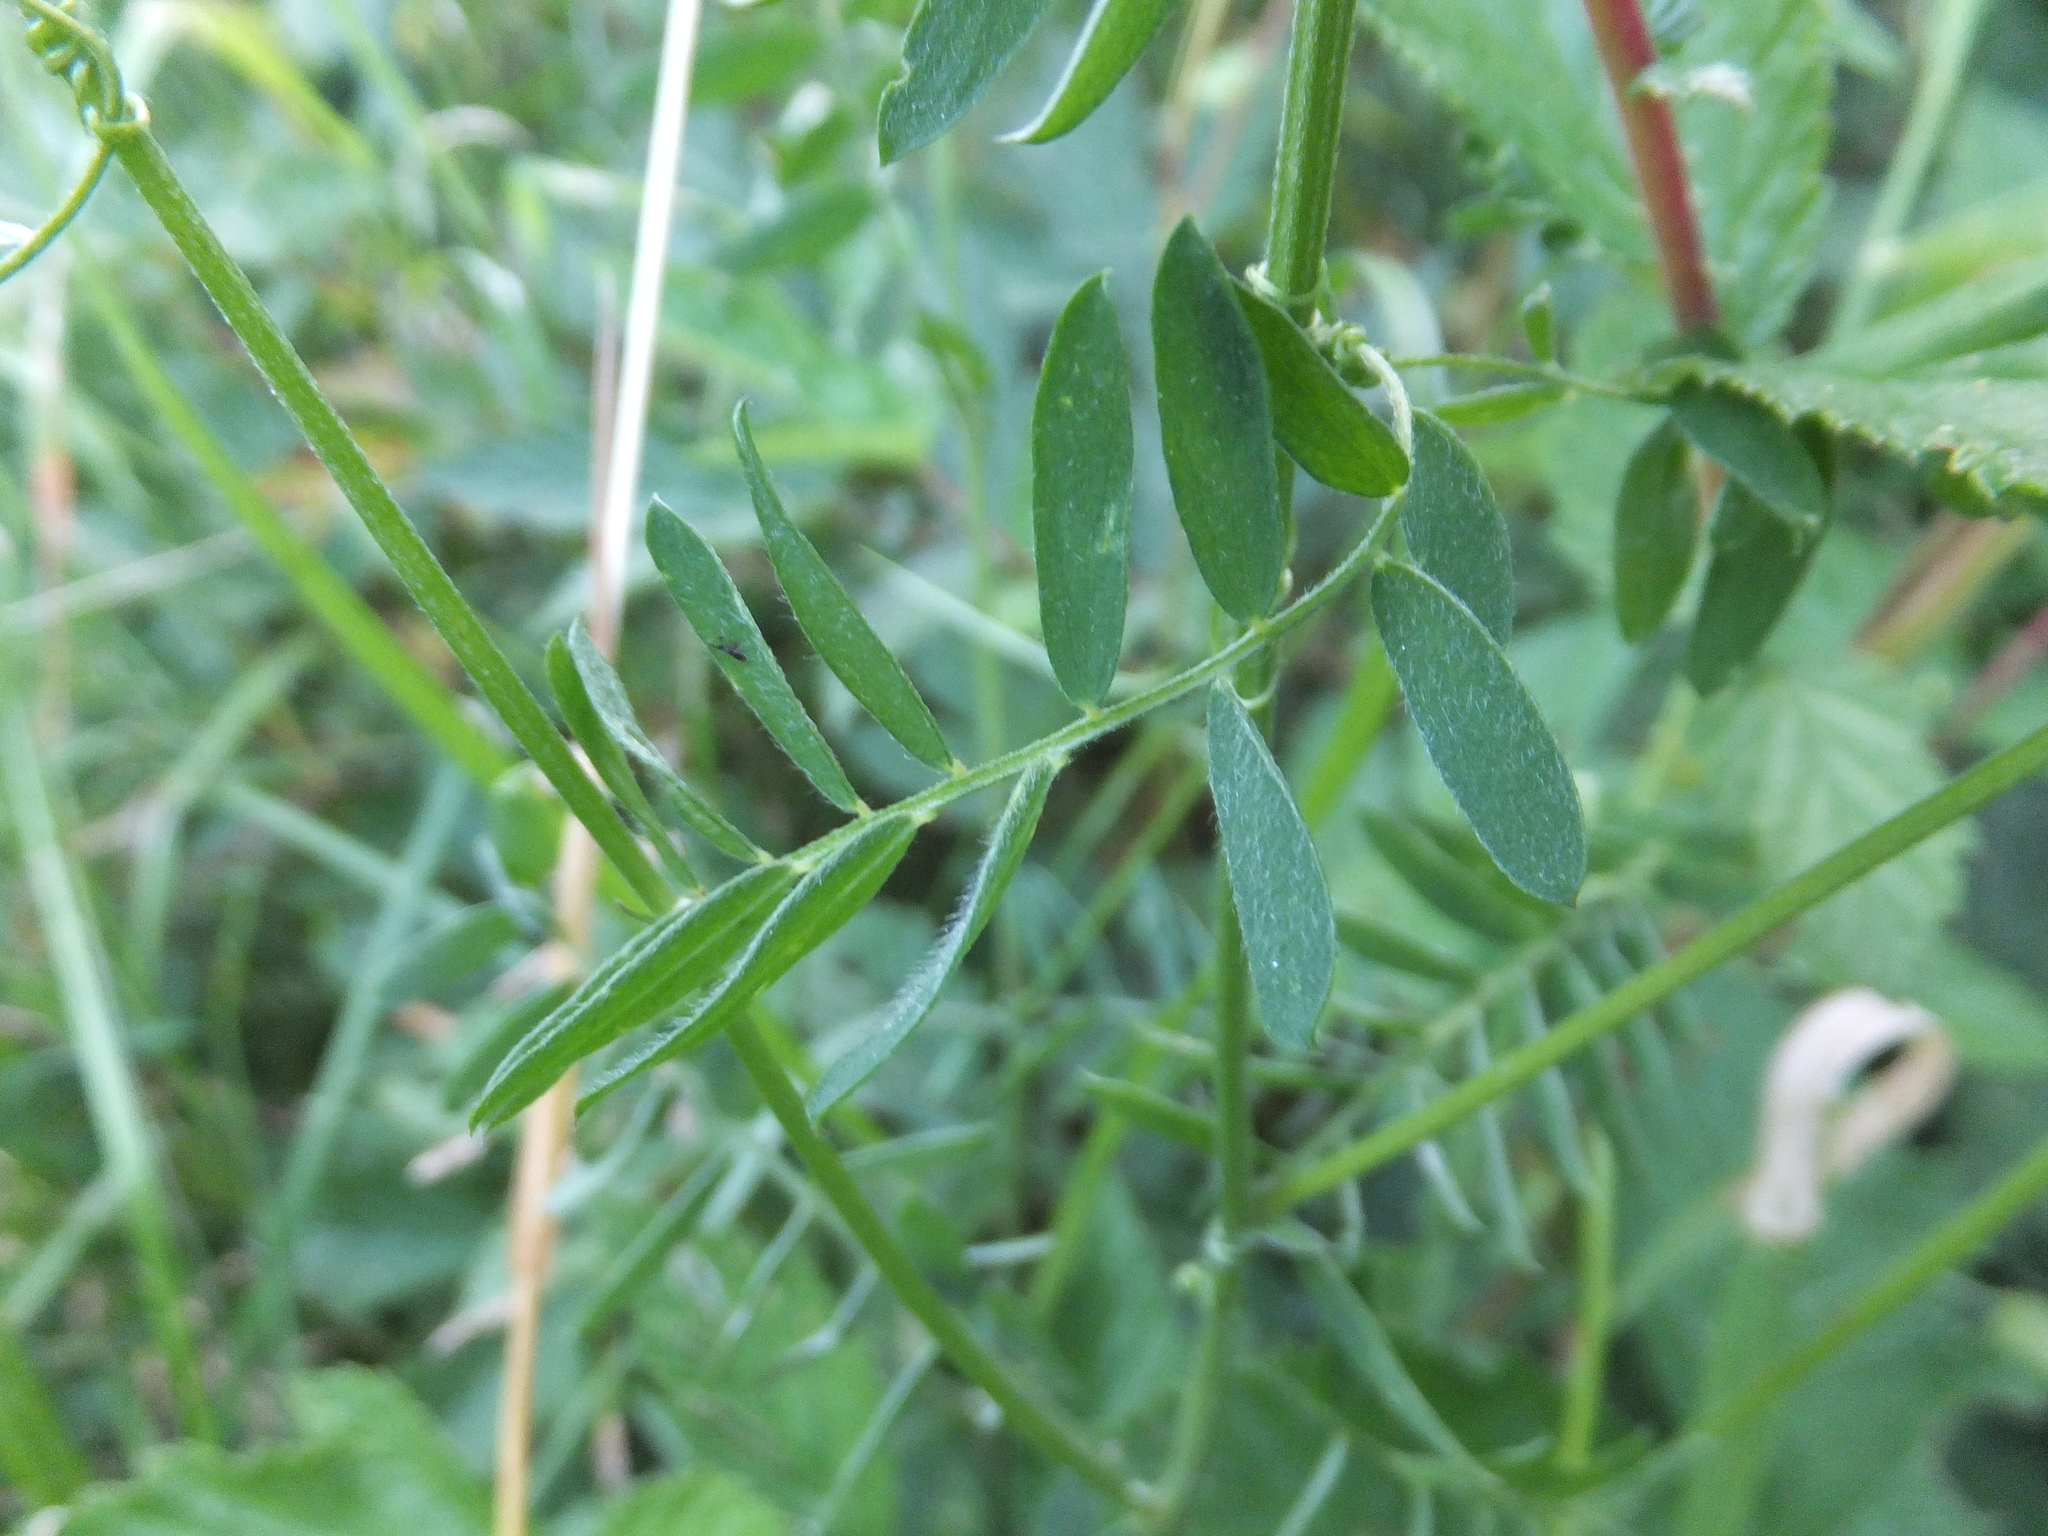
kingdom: Plantae
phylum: Tracheophyta
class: Magnoliopsida
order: Fabales
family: Fabaceae
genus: Vicia
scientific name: Vicia cracca
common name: Bird vetch
